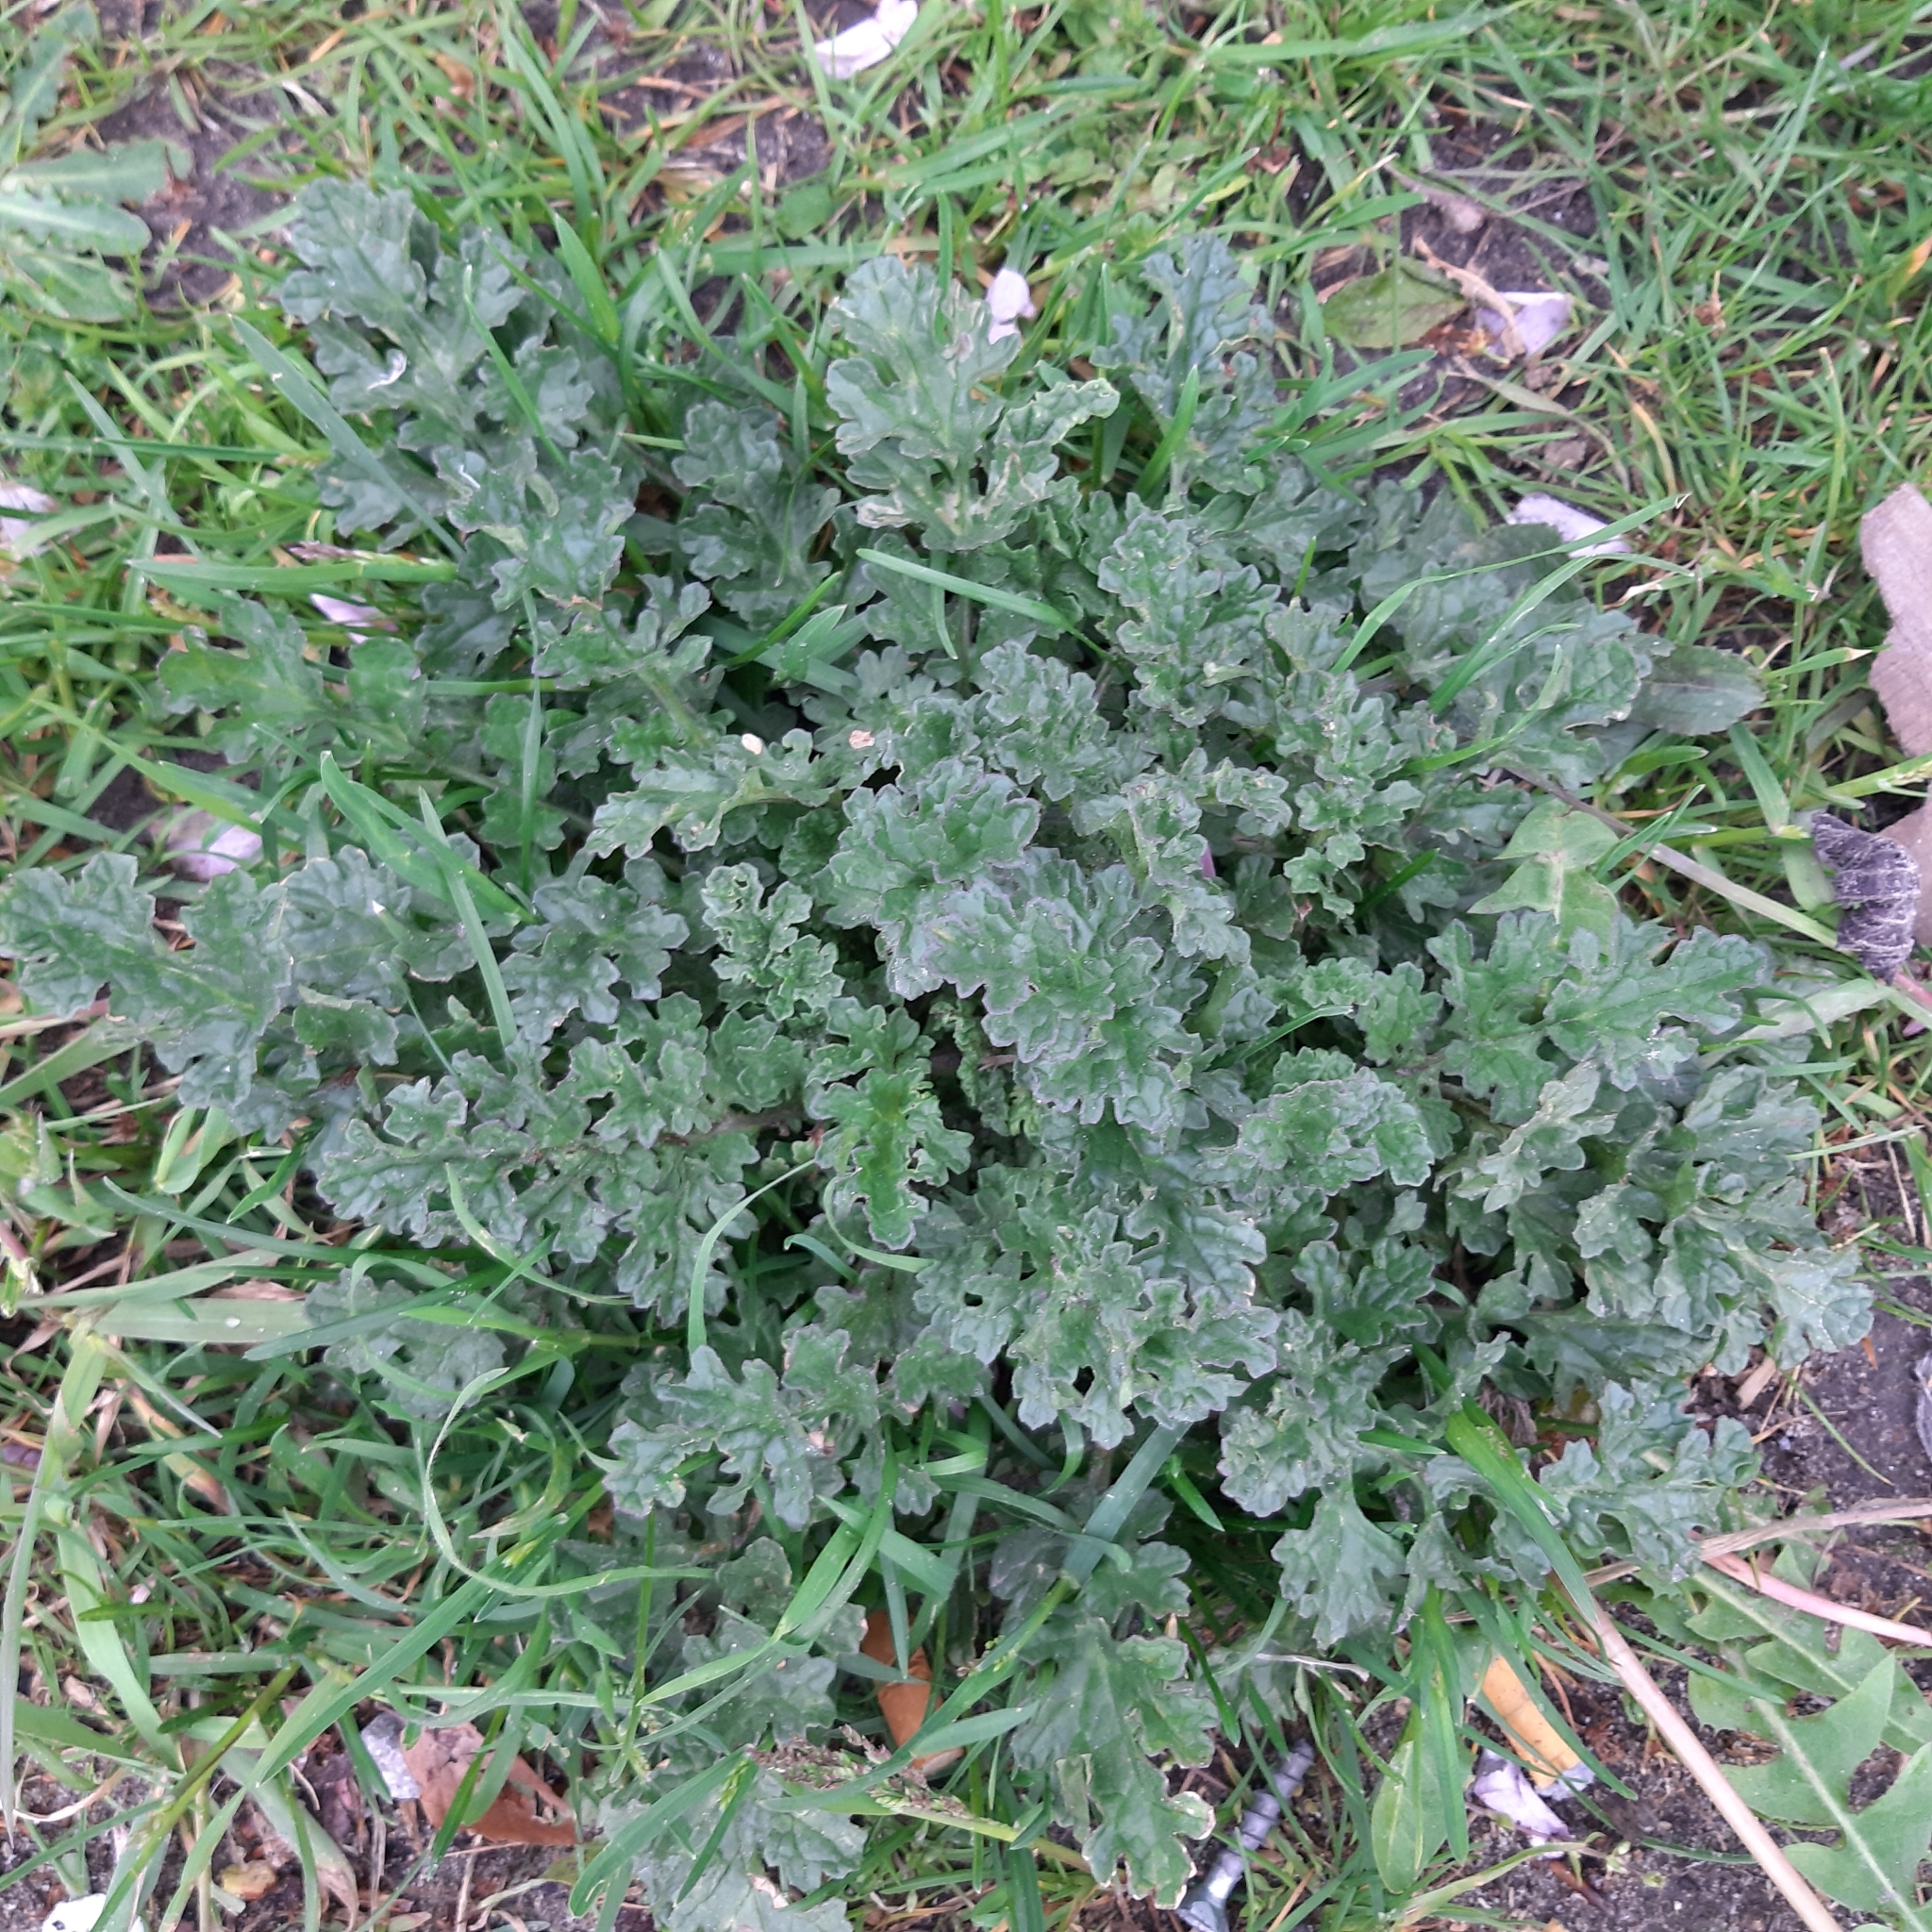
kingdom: Plantae
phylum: Tracheophyta
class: Magnoliopsida
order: Asterales
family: Asteraceae
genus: Jacobaea
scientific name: Jacobaea vulgaris
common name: Stinking willie
